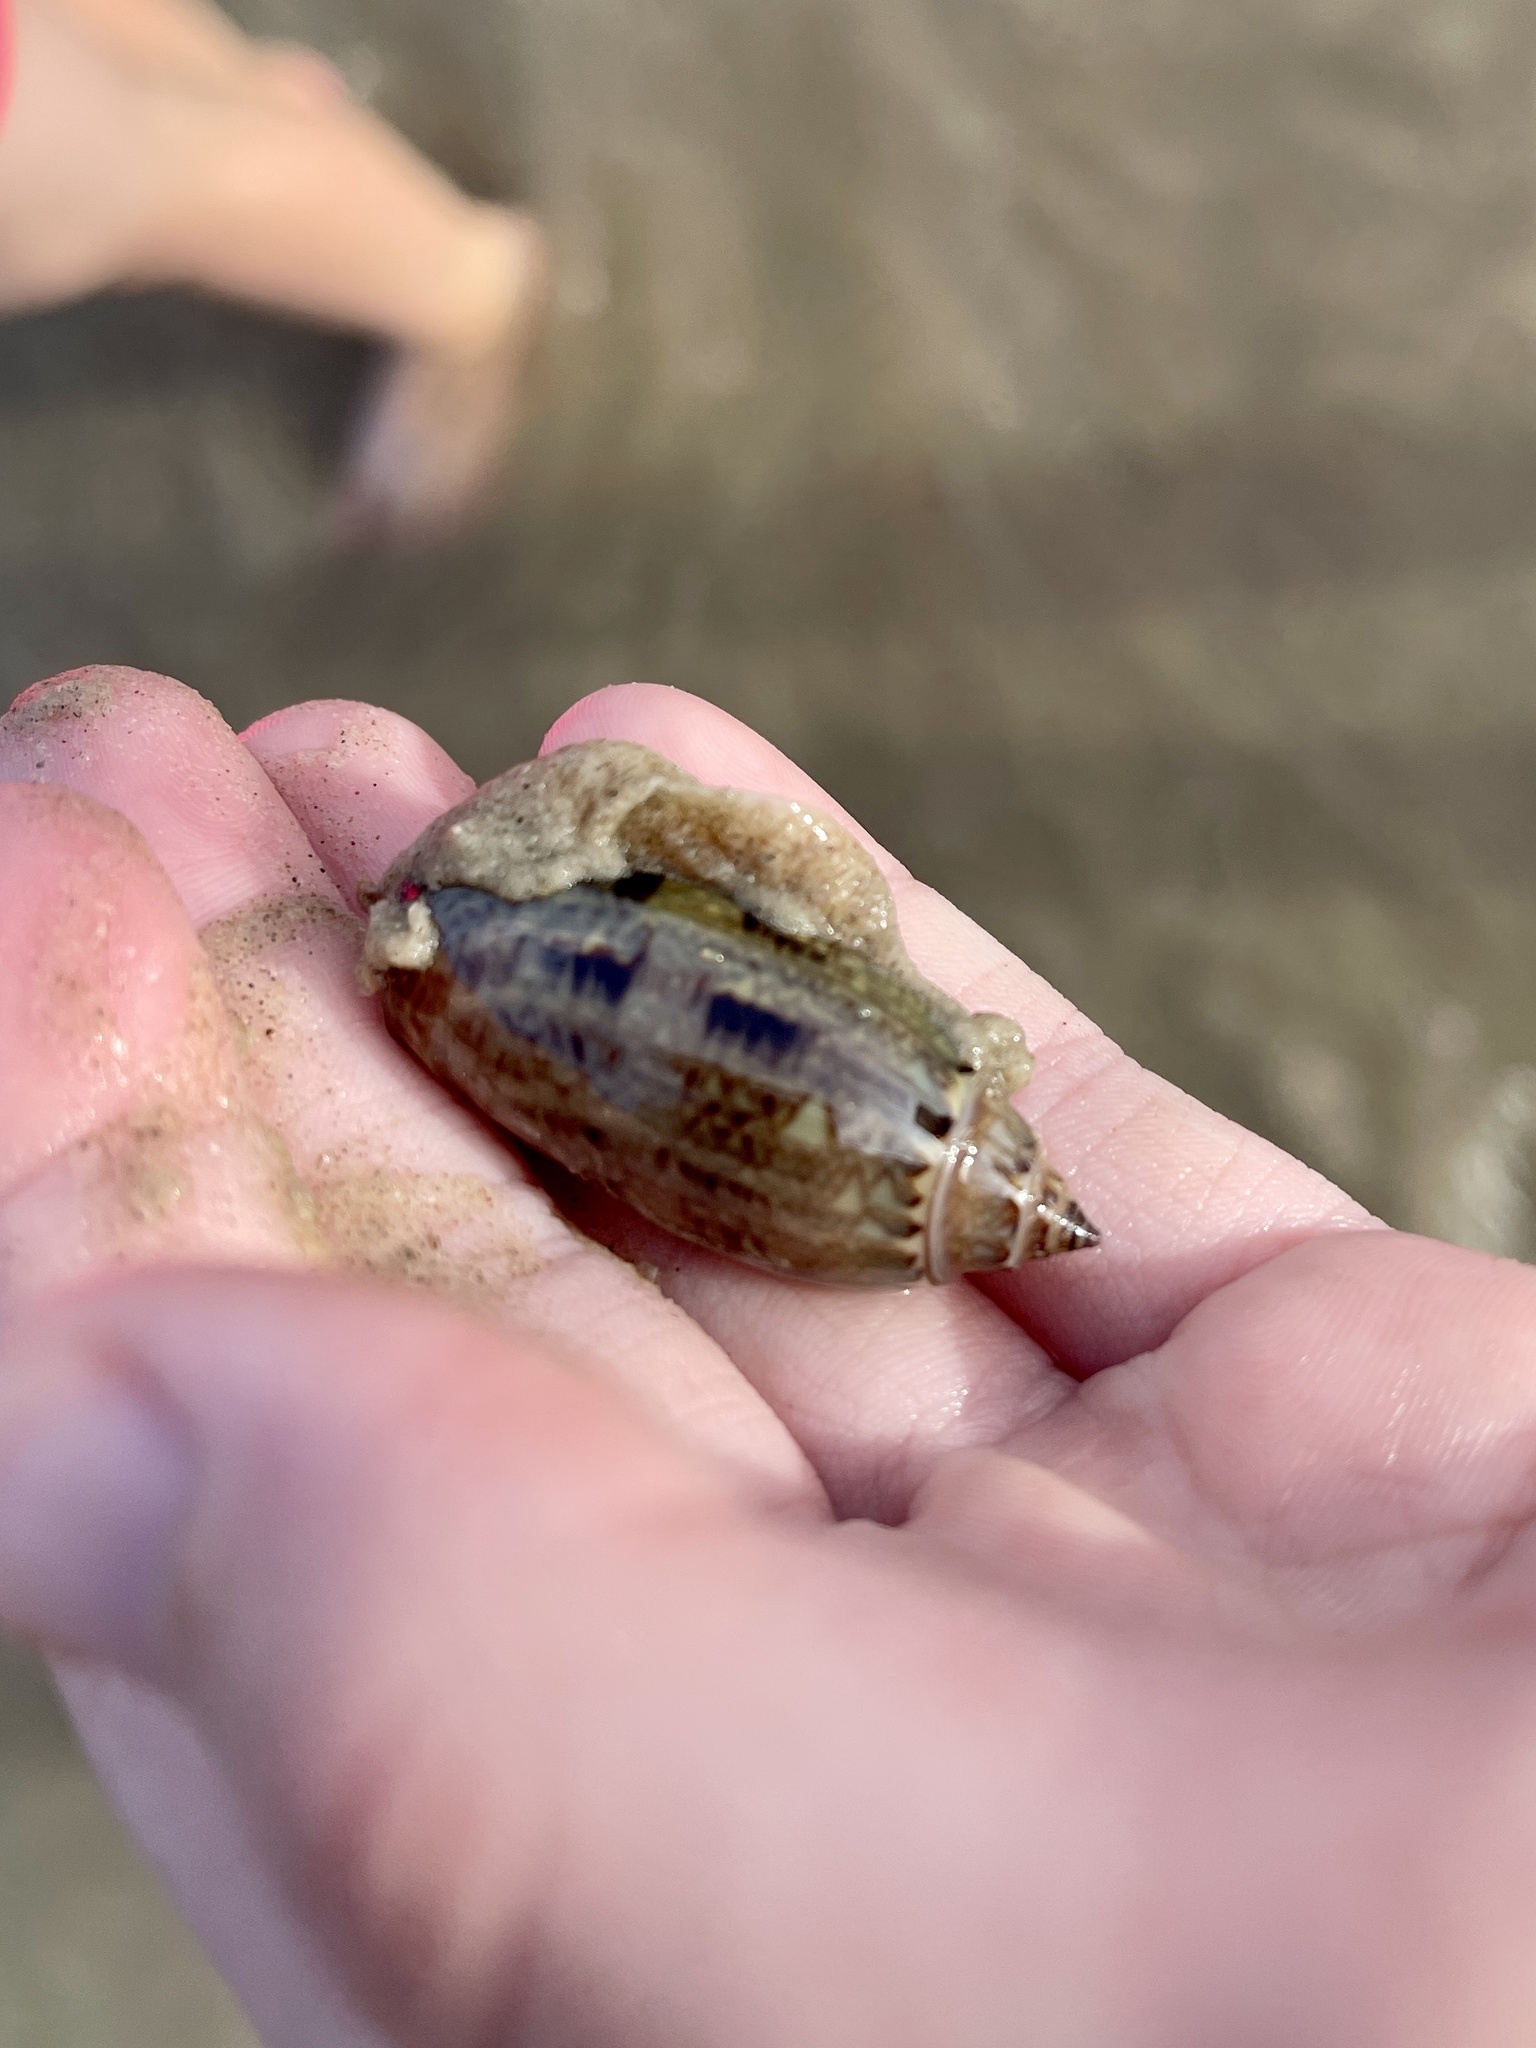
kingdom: Animalia
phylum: Mollusca
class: Gastropoda
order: Neogastropoda
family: Olividae
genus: Oliva
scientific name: Oliva sayana
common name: Lettered olive
